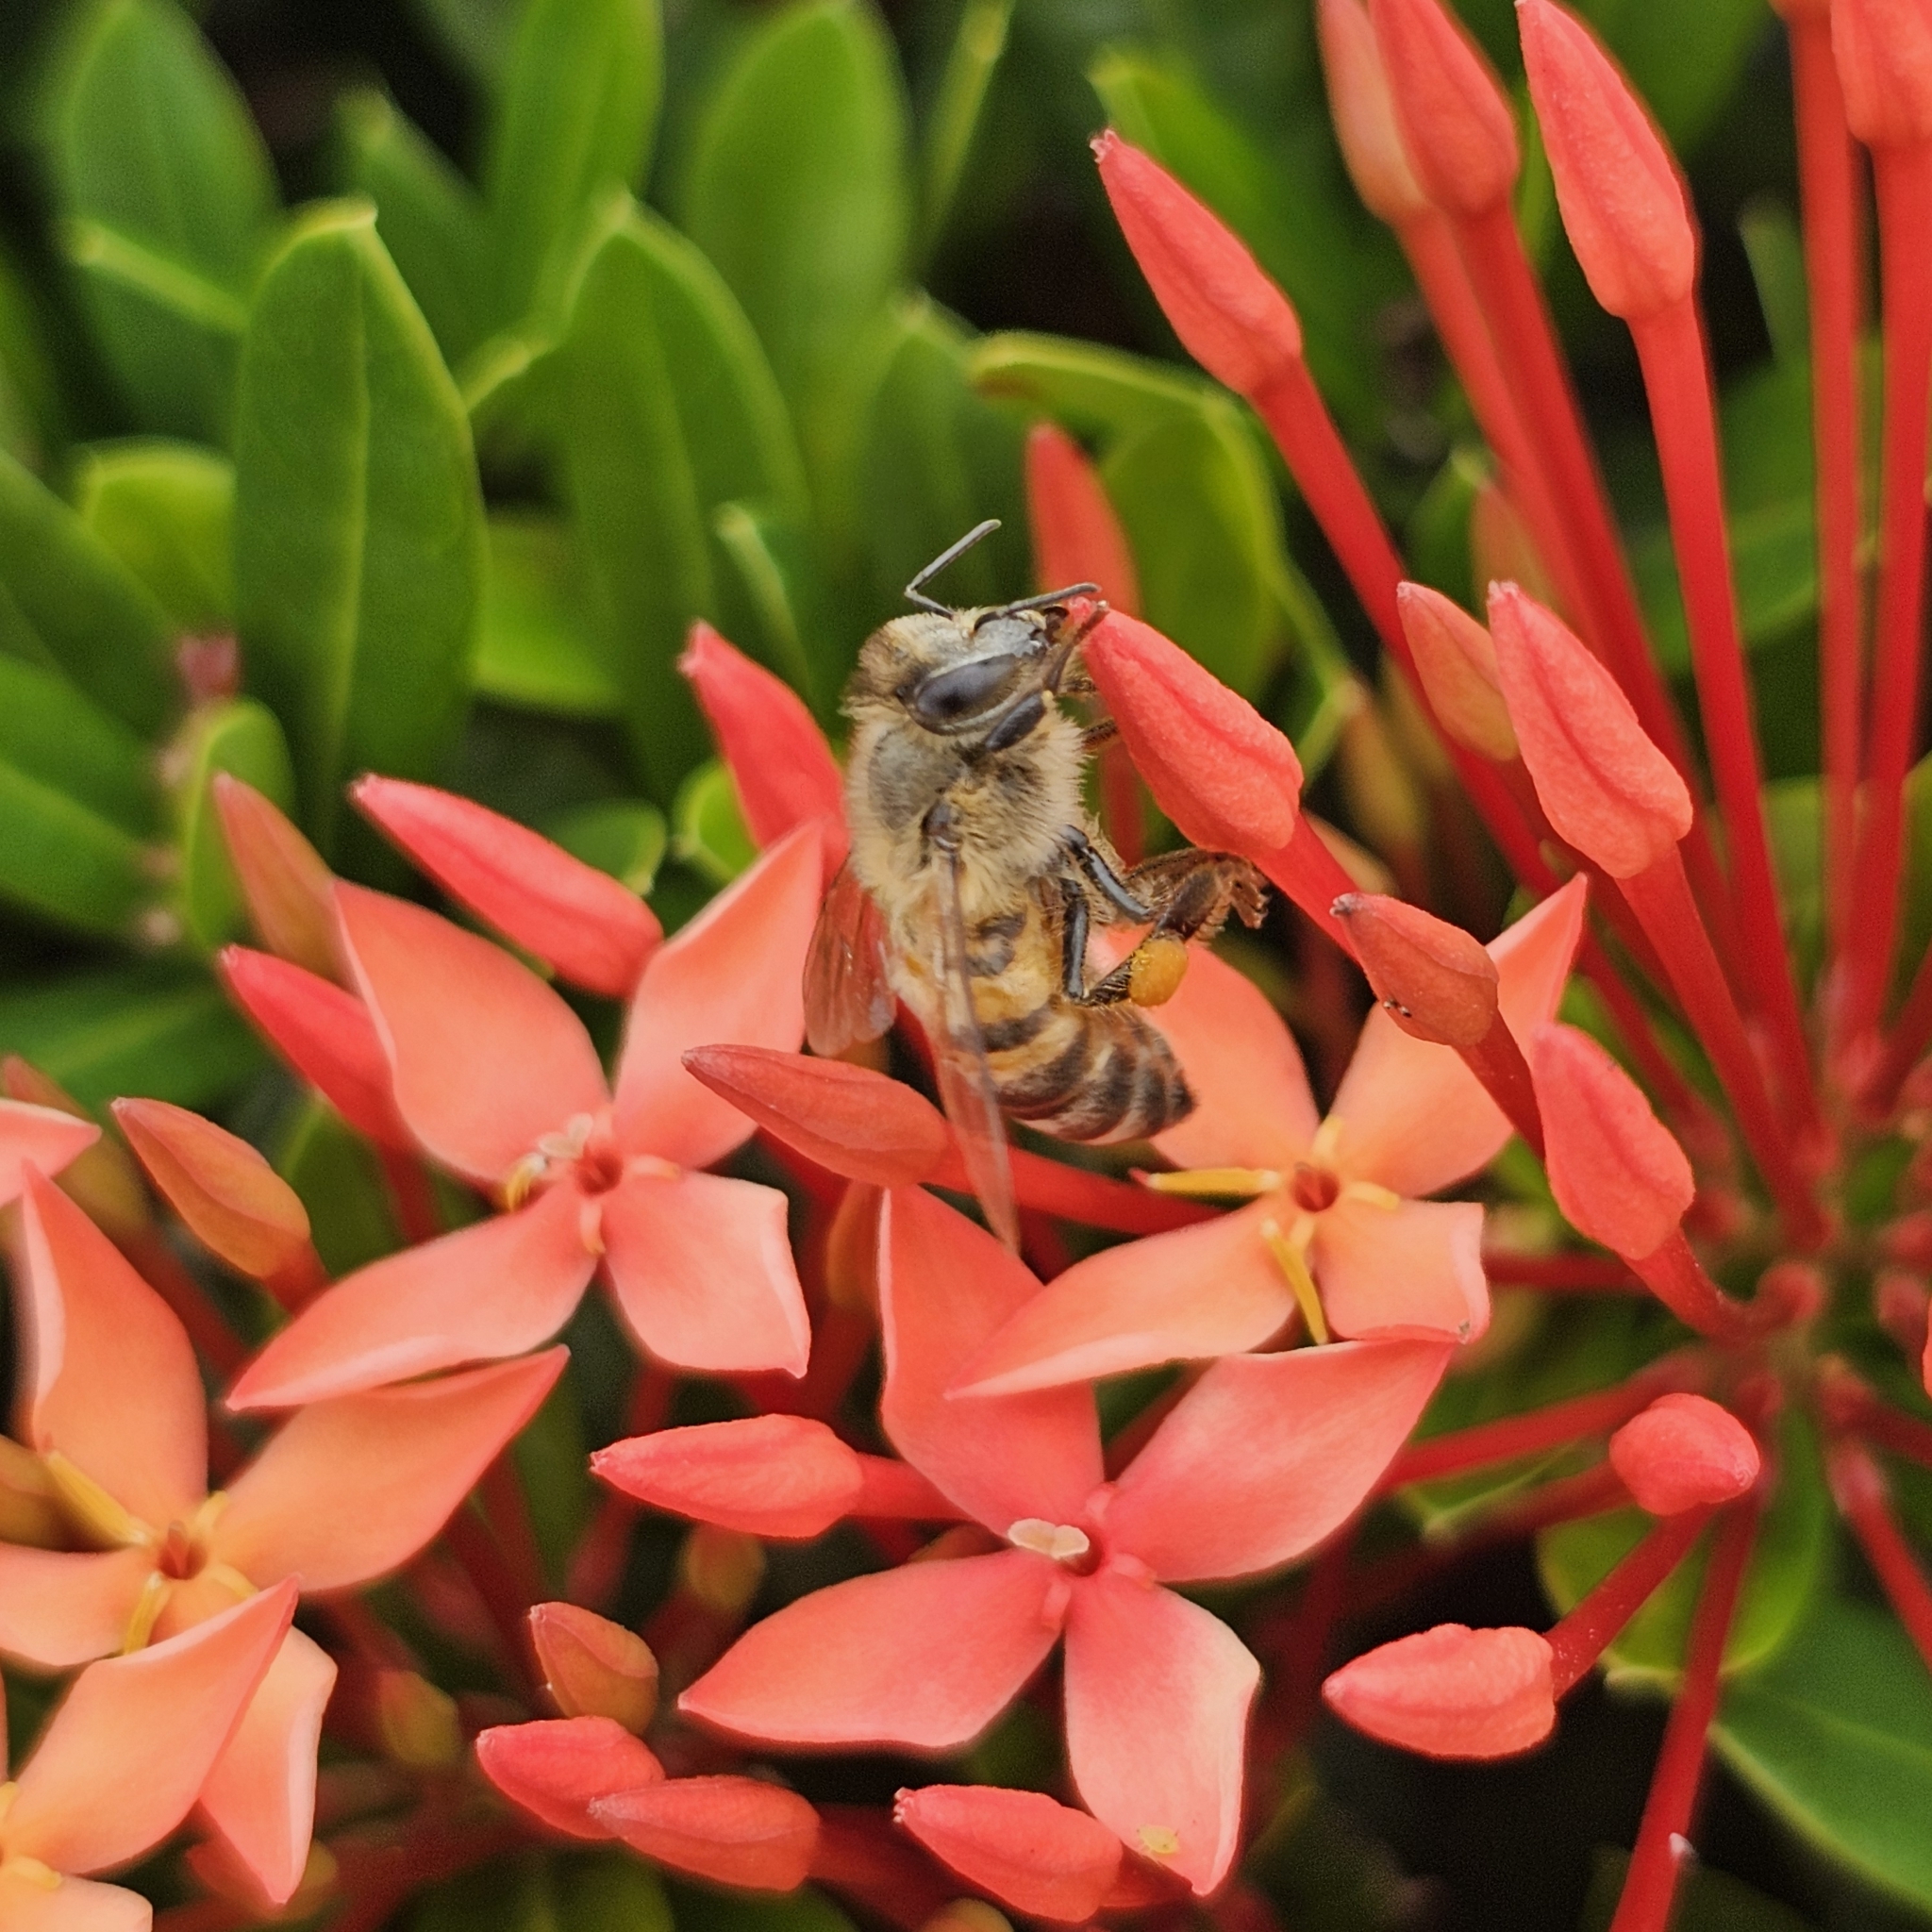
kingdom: Animalia
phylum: Arthropoda
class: Insecta
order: Hymenoptera
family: Apidae
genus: Apis
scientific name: Apis mellifera
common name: Honey bee
